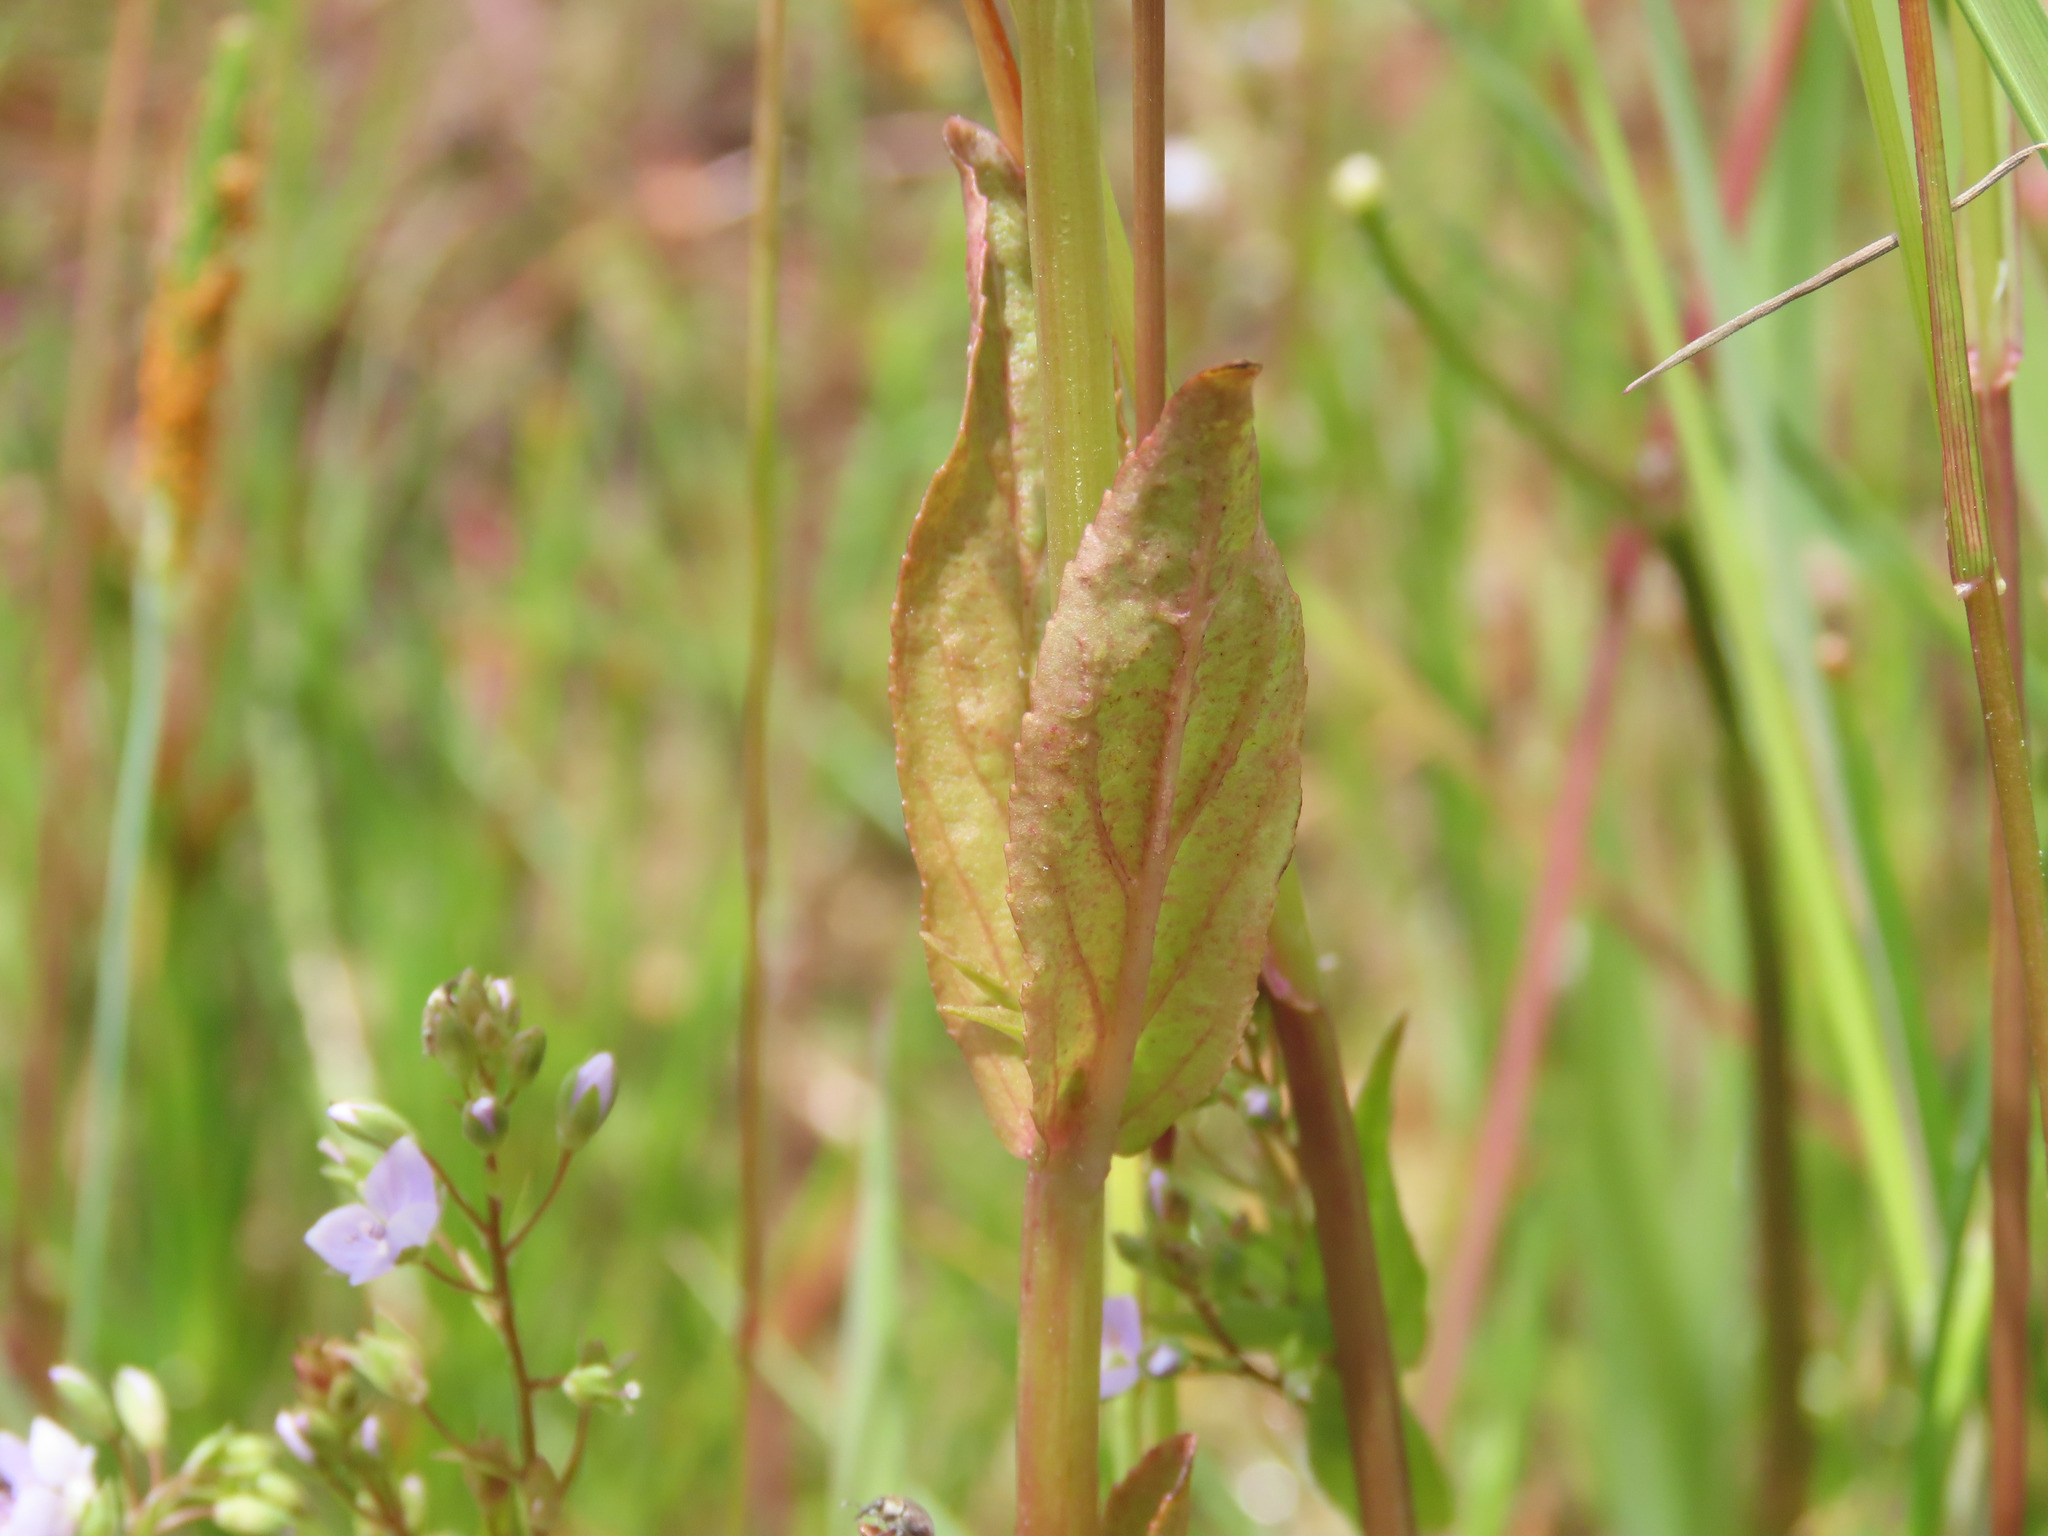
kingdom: Plantae
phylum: Tracheophyta
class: Magnoliopsida
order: Lamiales
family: Plantaginaceae
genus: Veronica
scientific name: Veronica anagallis-aquatica
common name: Water speedwell
